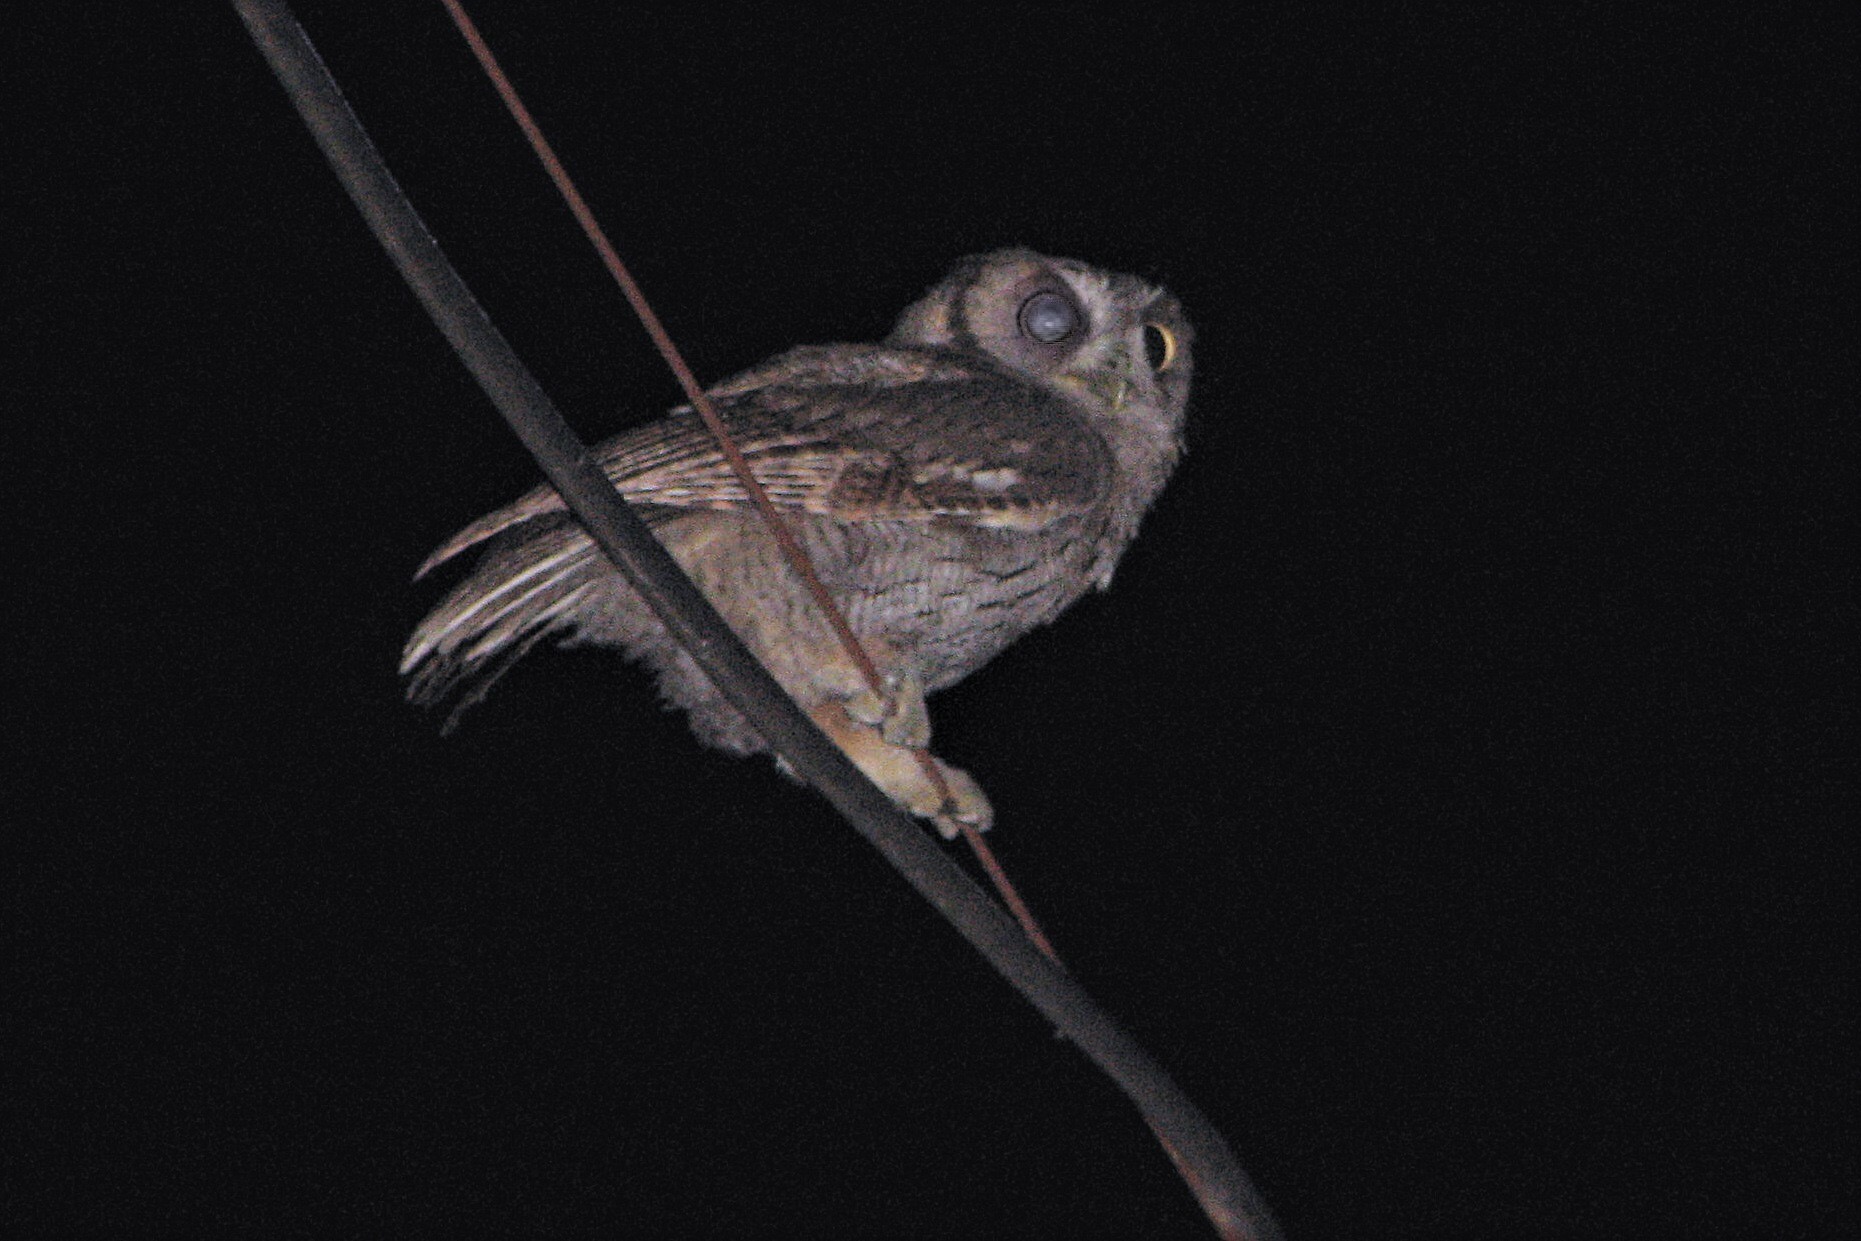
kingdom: Animalia
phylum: Chordata
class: Aves
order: Strigiformes
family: Strigidae
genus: Megascops
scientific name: Megascops choliba
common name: Tropical screech-owl
